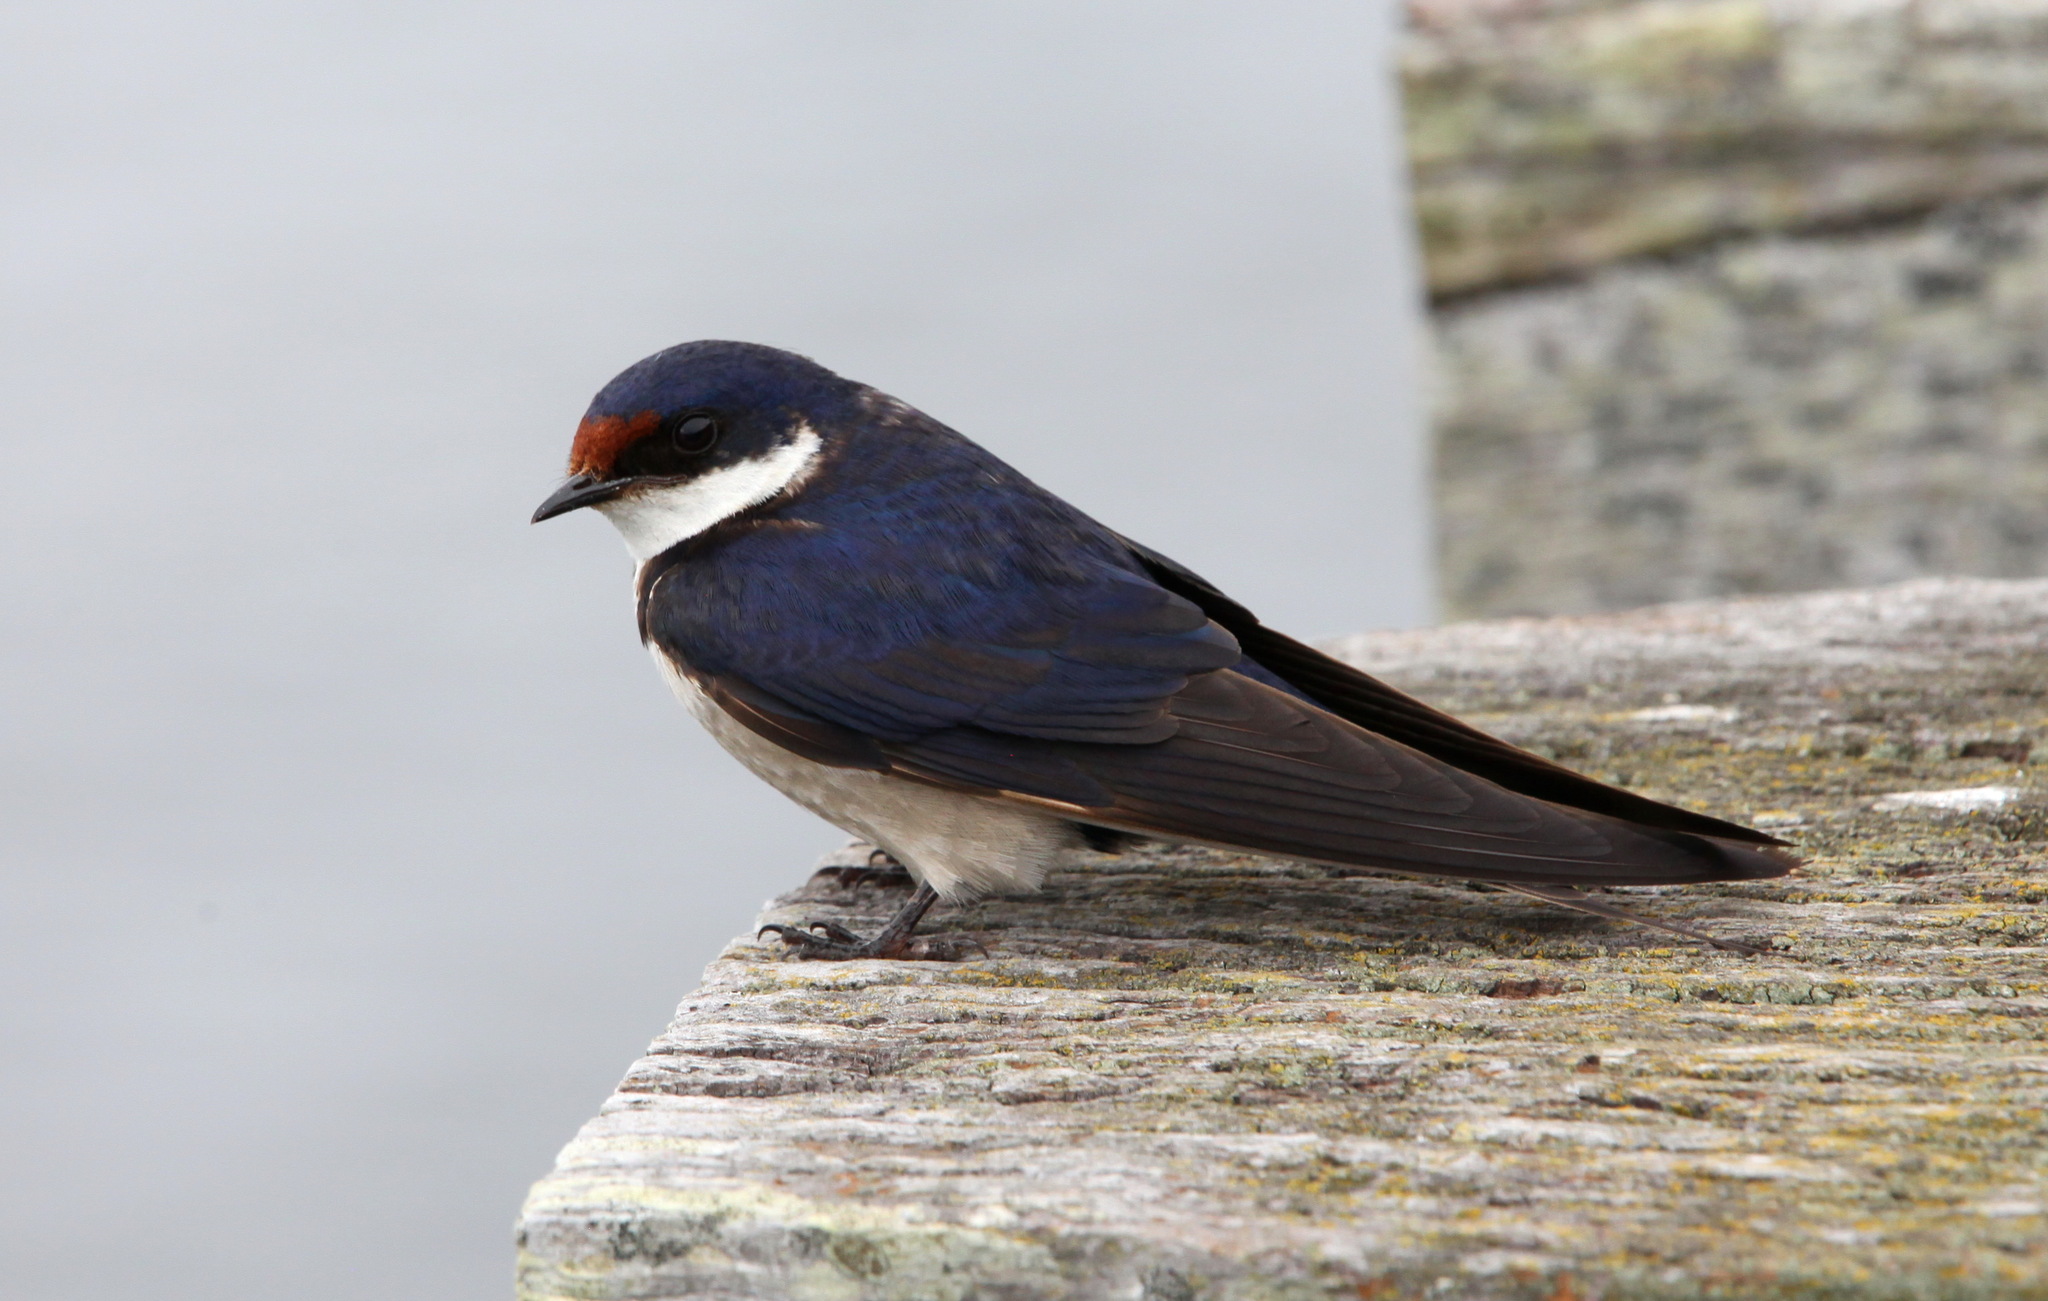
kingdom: Animalia
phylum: Chordata
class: Aves
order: Passeriformes
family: Hirundinidae
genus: Hirundo
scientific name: Hirundo albigularis
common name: White-throated swallow
